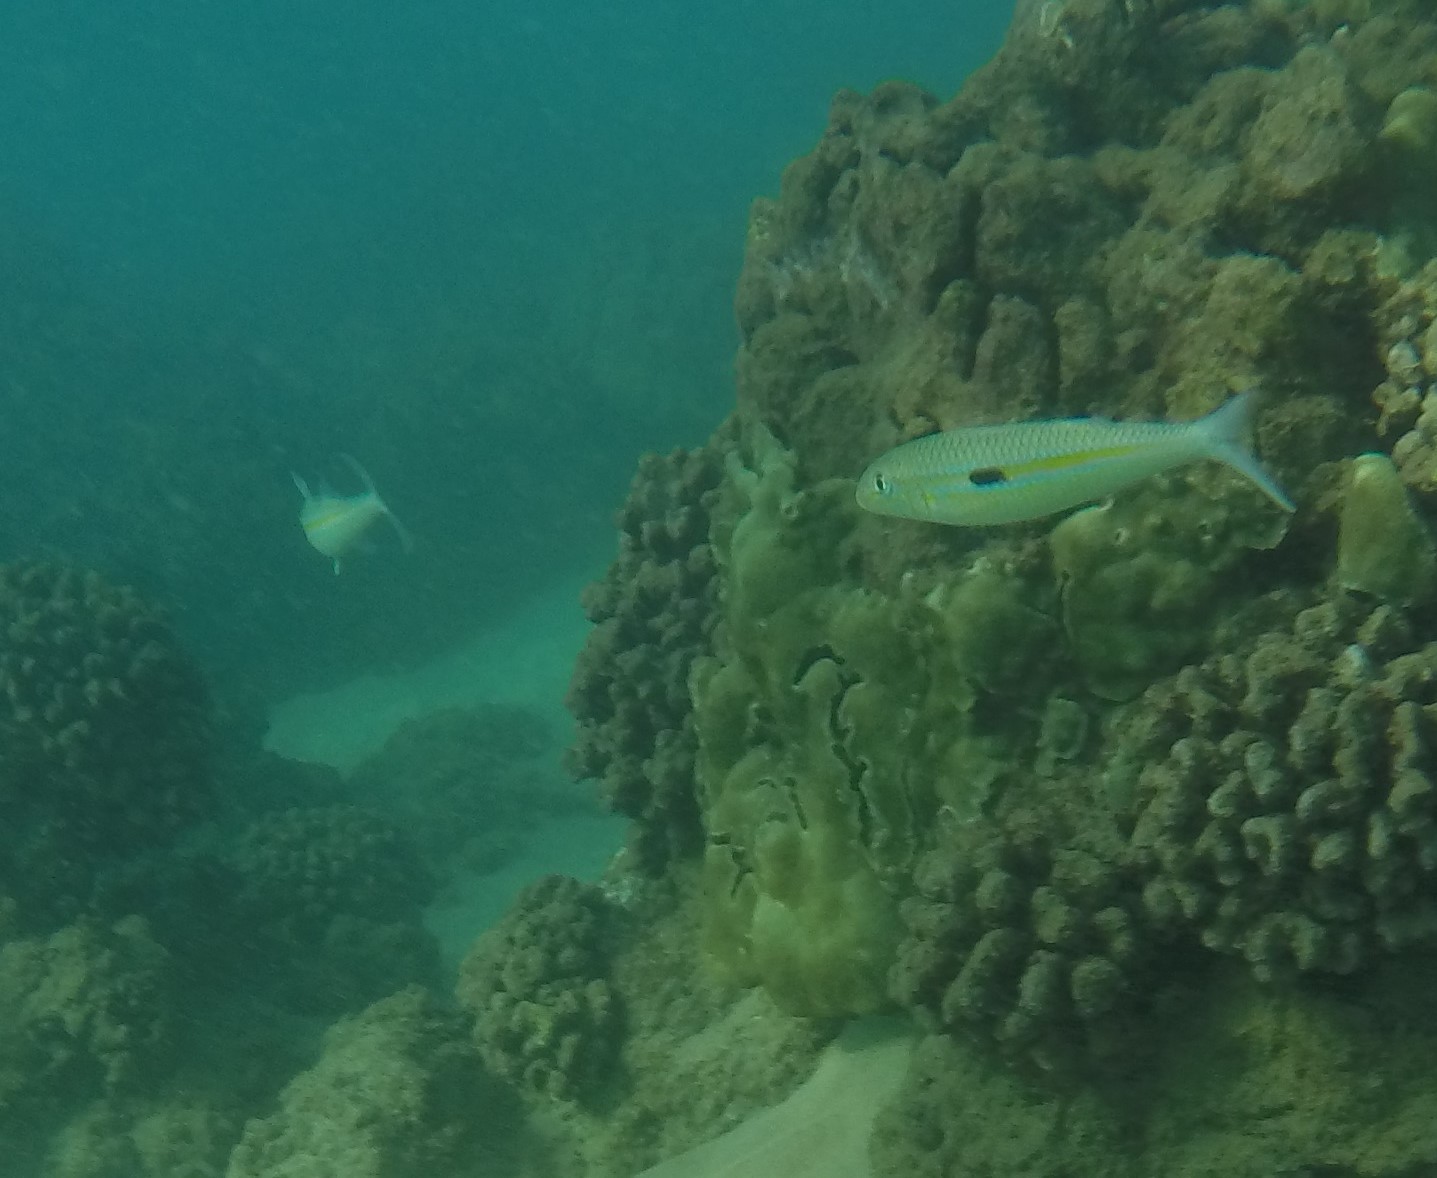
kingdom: Animalia
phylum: Chordata
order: Perciformes
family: Mullidae
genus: Mulloidichthys
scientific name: Mulloidichthys flavolineatus
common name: Yellowstripe goatfish
